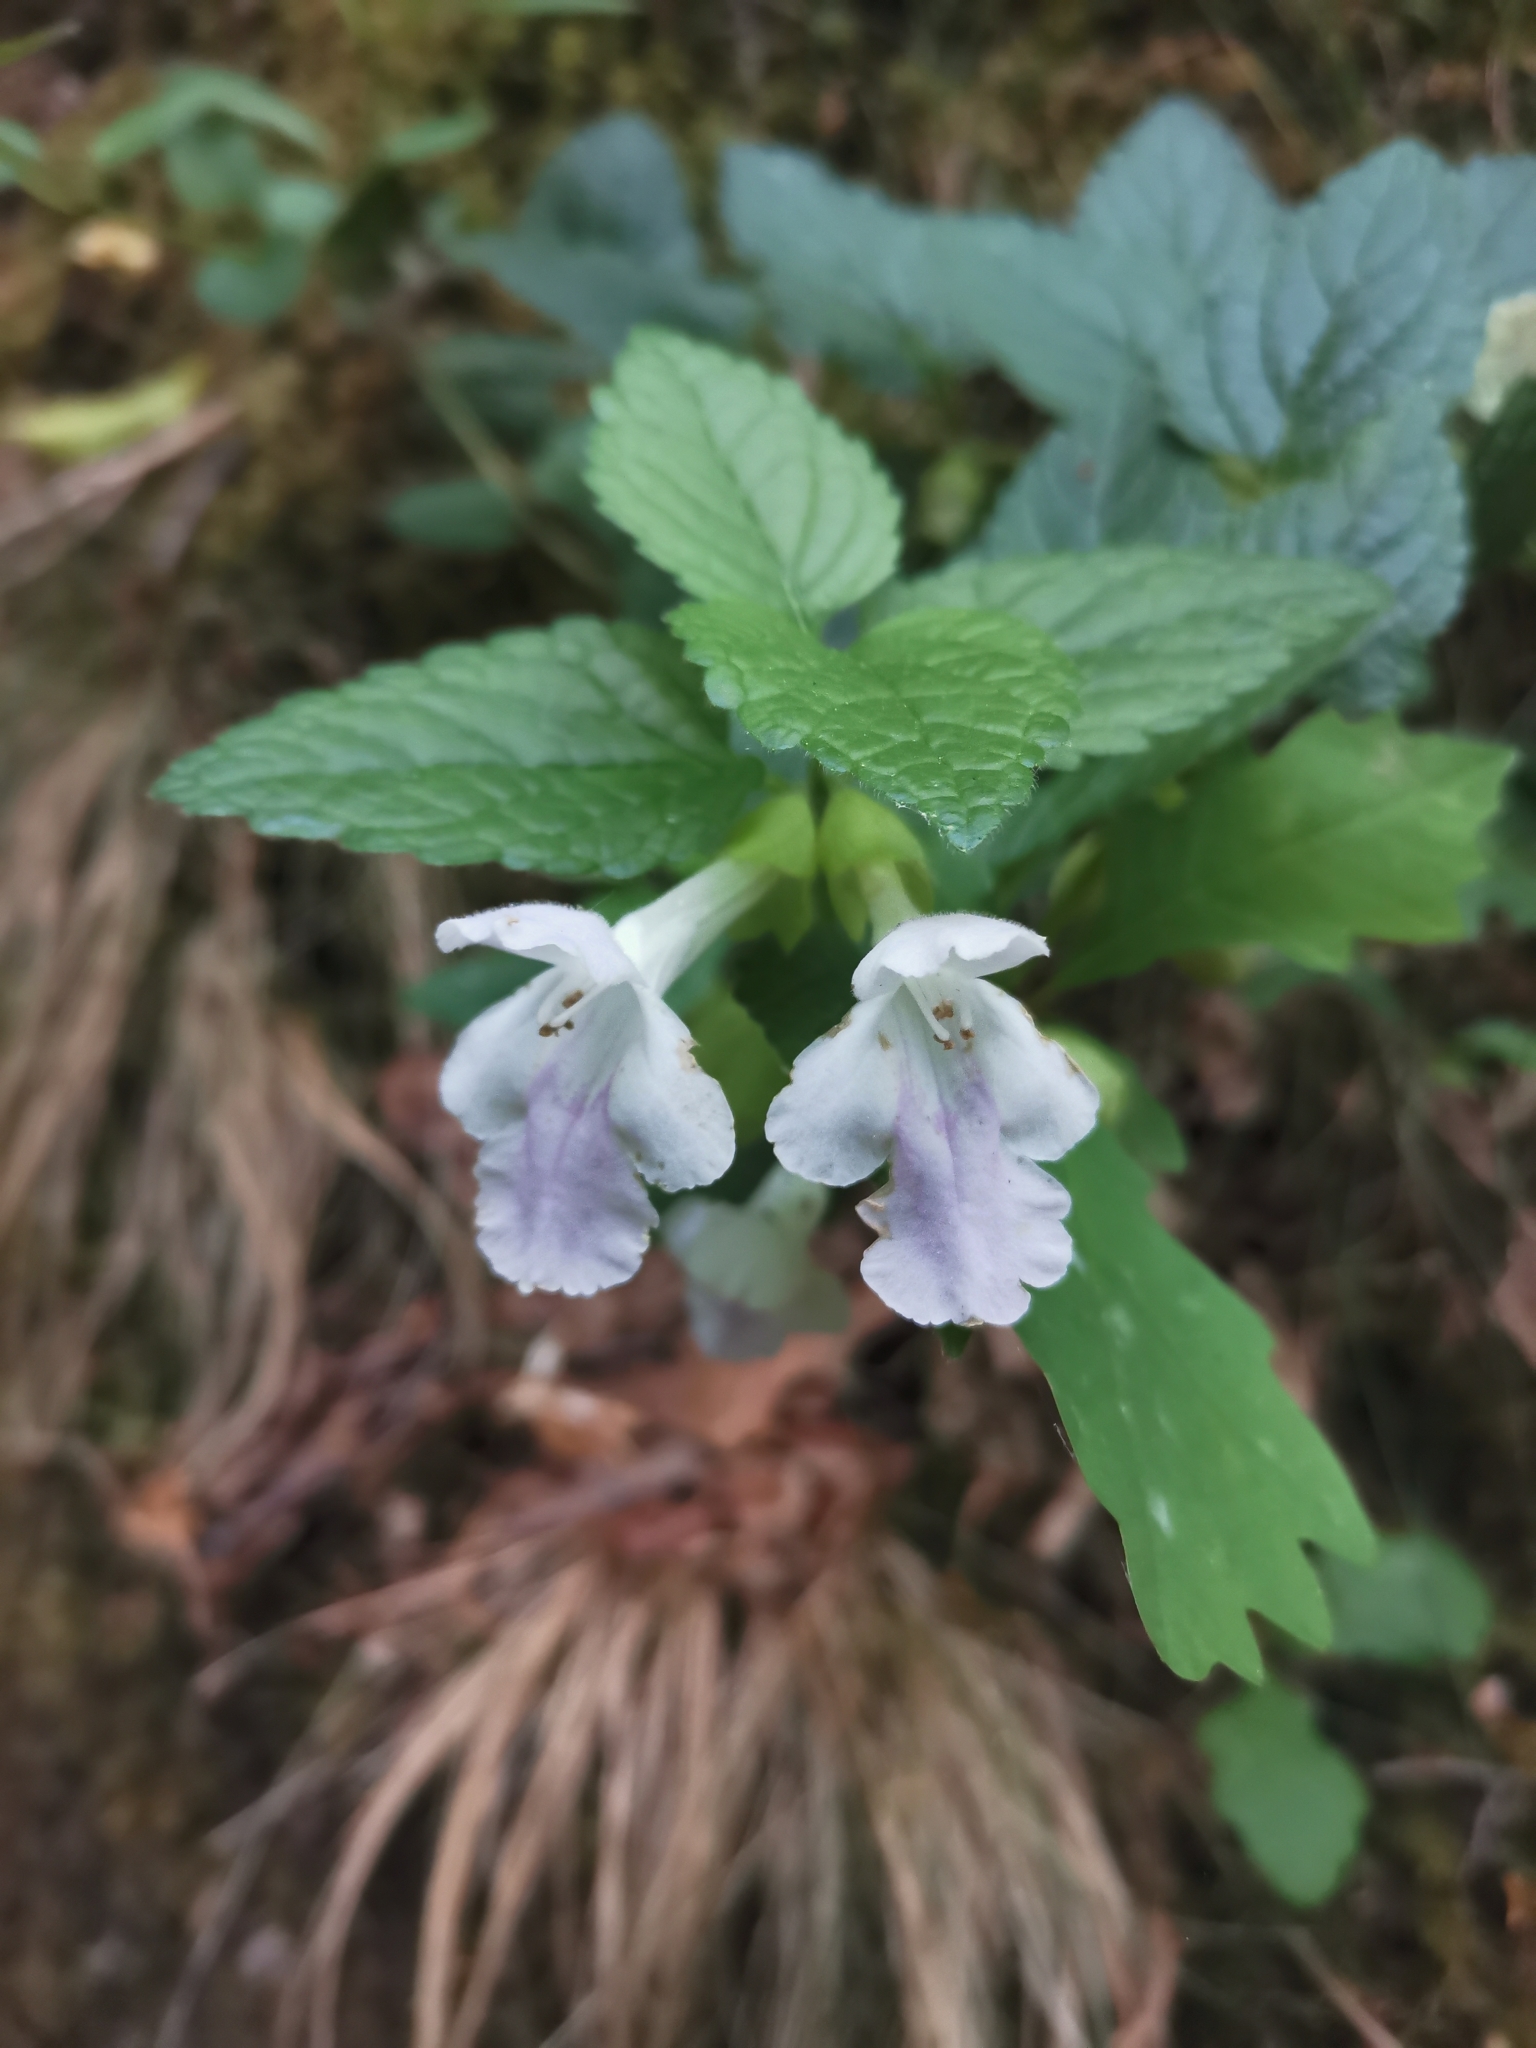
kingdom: Plantae
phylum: Tracheophyta
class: Magnoliopsida
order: Lamiales
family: Lamiaceae
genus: Melittis
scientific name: Melittis melissophyllum
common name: Bastard balm
